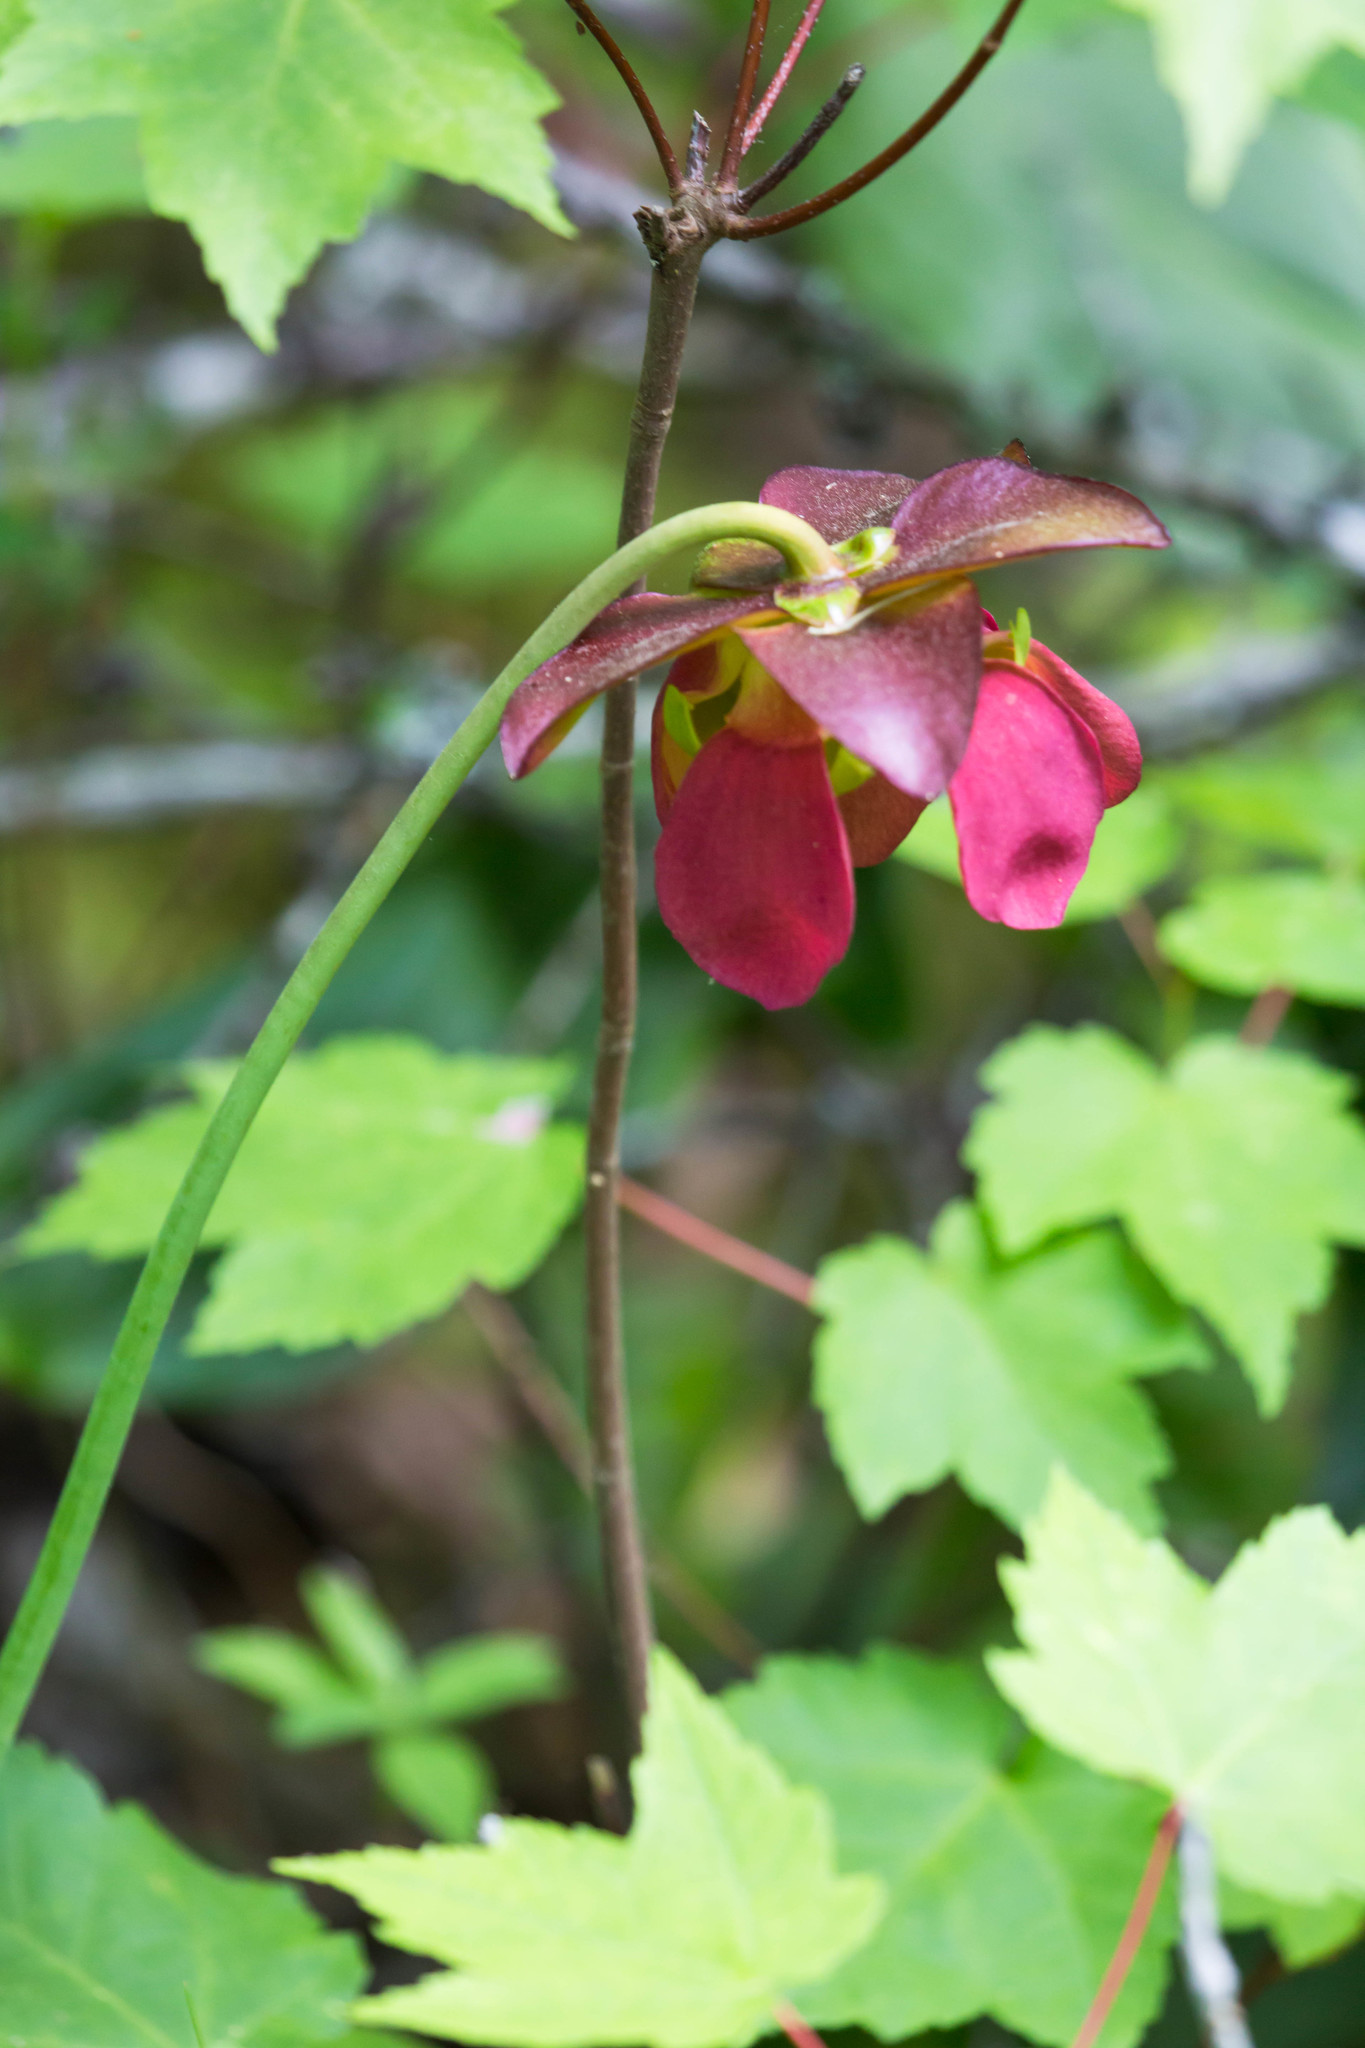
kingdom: Plantae
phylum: Tracheophyta
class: Magnoliopsida
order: Ericales
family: Sarraceniaceae
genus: Sarracenia
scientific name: Sarracenia purpurea
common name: Pitcherplant
